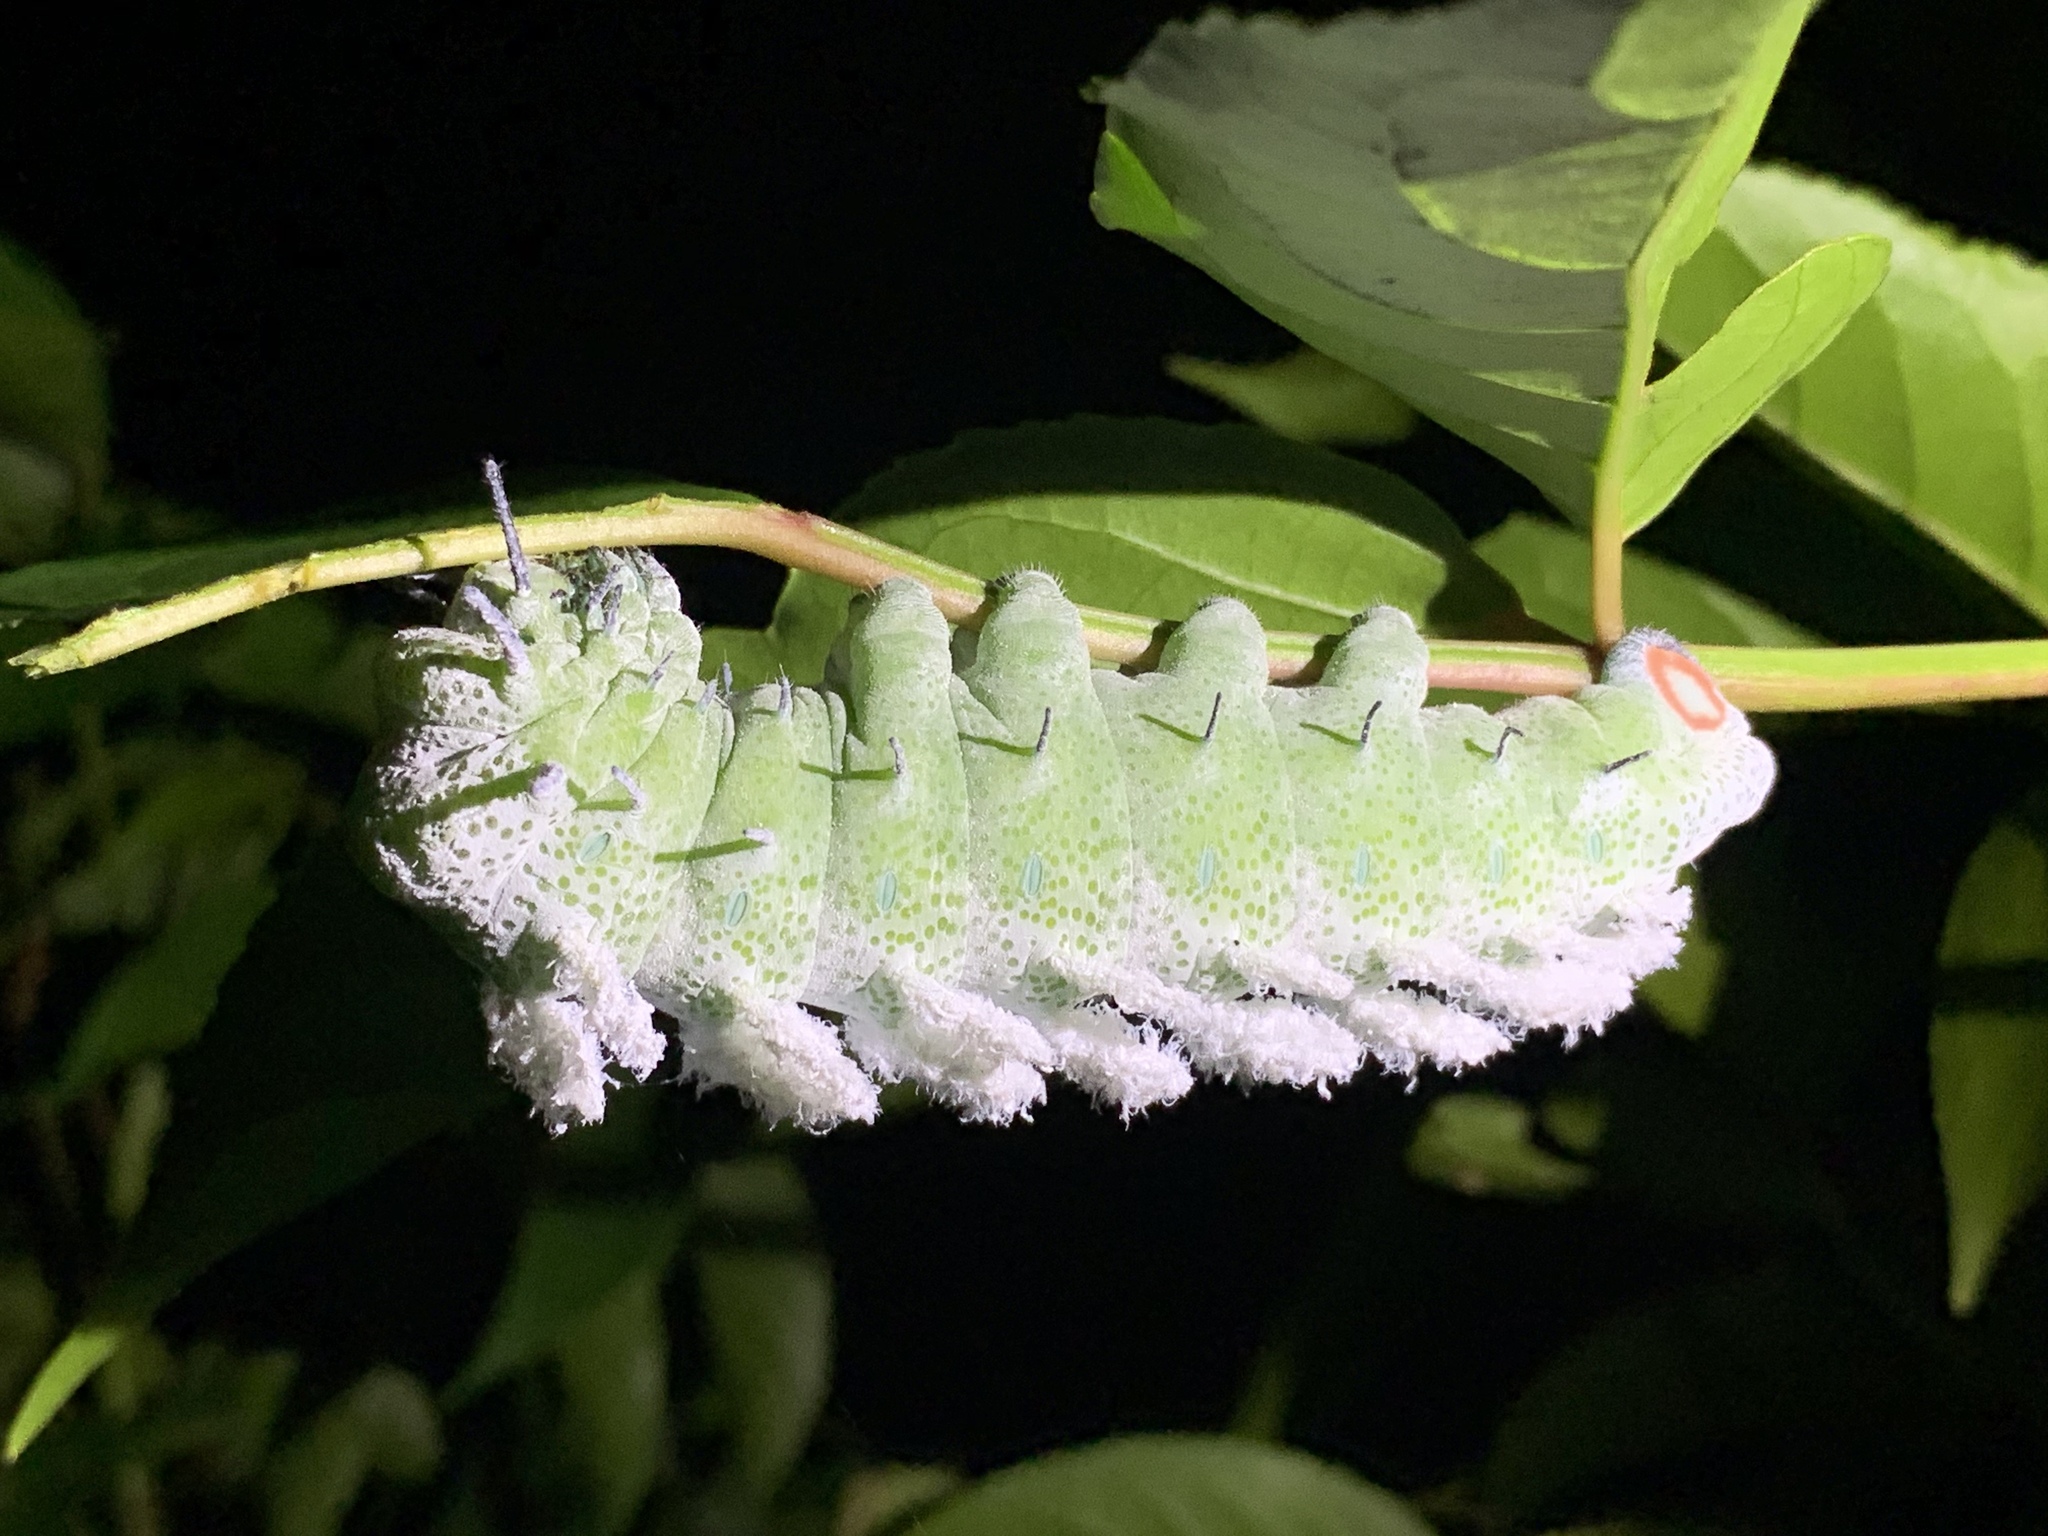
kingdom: Animalia
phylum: Arthropoda
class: Insecta
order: Lepidoptera
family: Saturniidae
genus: Attacus
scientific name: Attacus atlas
